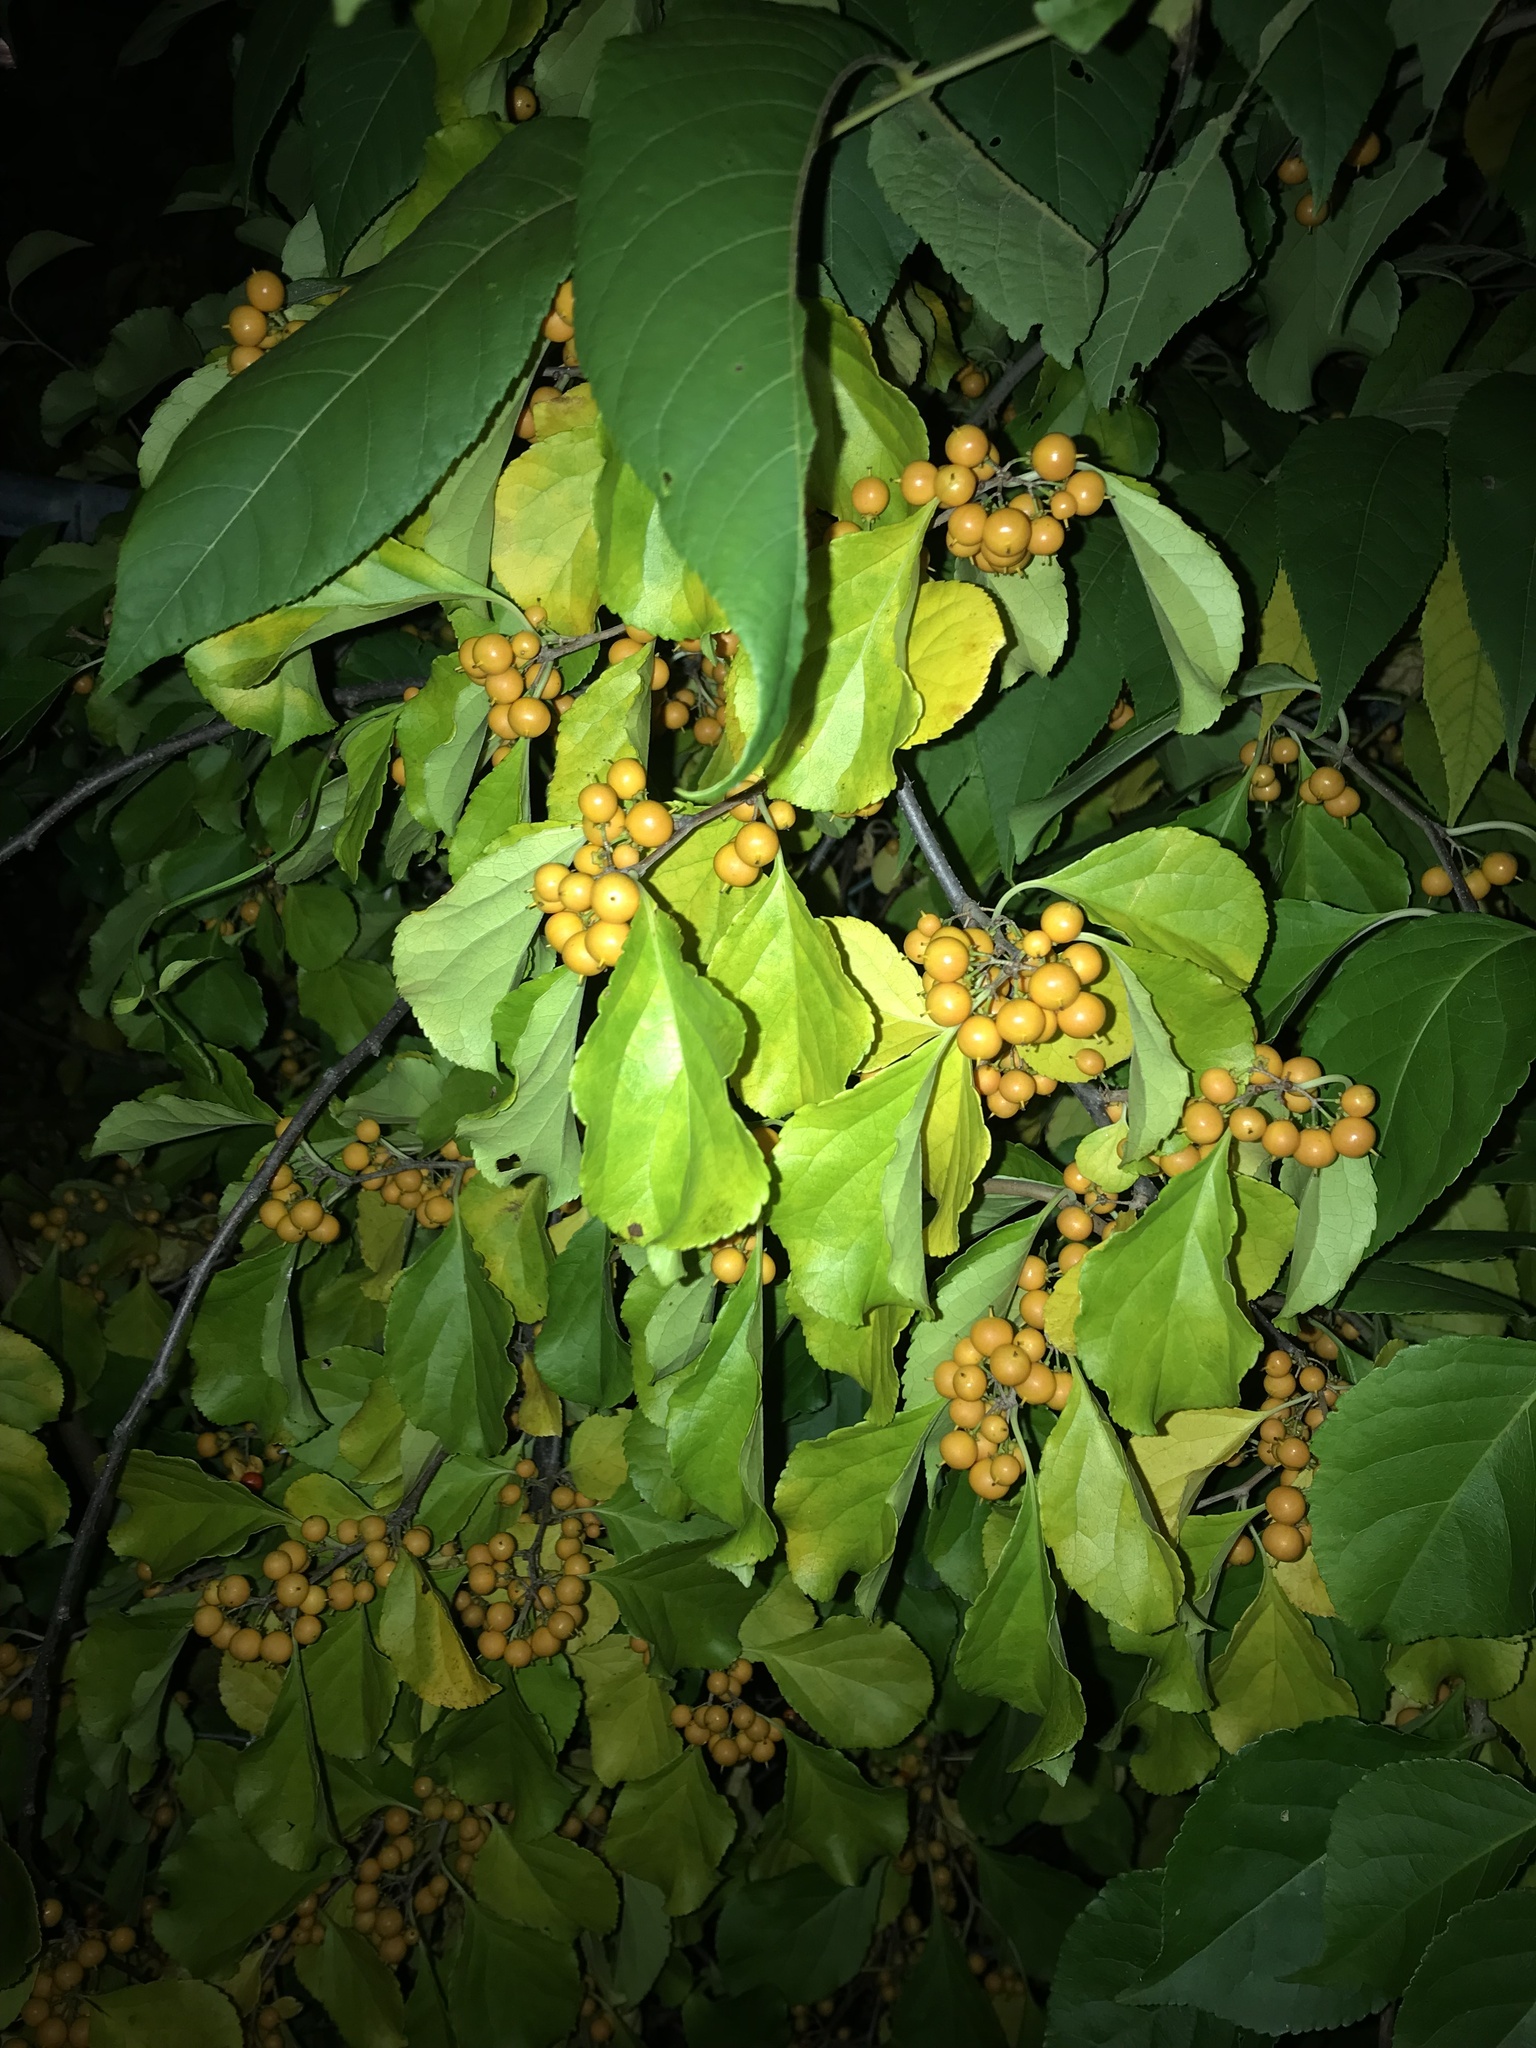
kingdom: Plantae
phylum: Tracheophyta
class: Magnoliopsida
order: Celastrales
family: Celastraceae
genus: Celastrus
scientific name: Celastrus scandens
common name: American bittersweet
